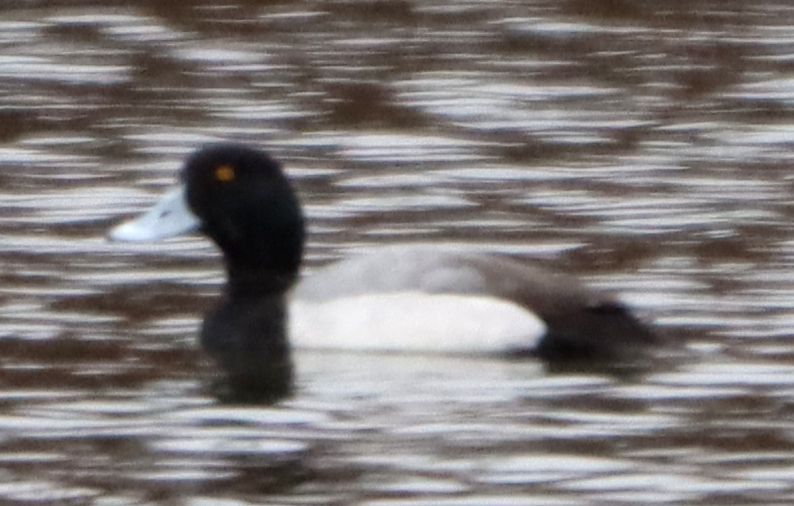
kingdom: Animalia
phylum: Chordata
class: Aves
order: Anseriformes
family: Anatidae
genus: Aythya
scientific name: Aythya affinis
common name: Lesser scaup
